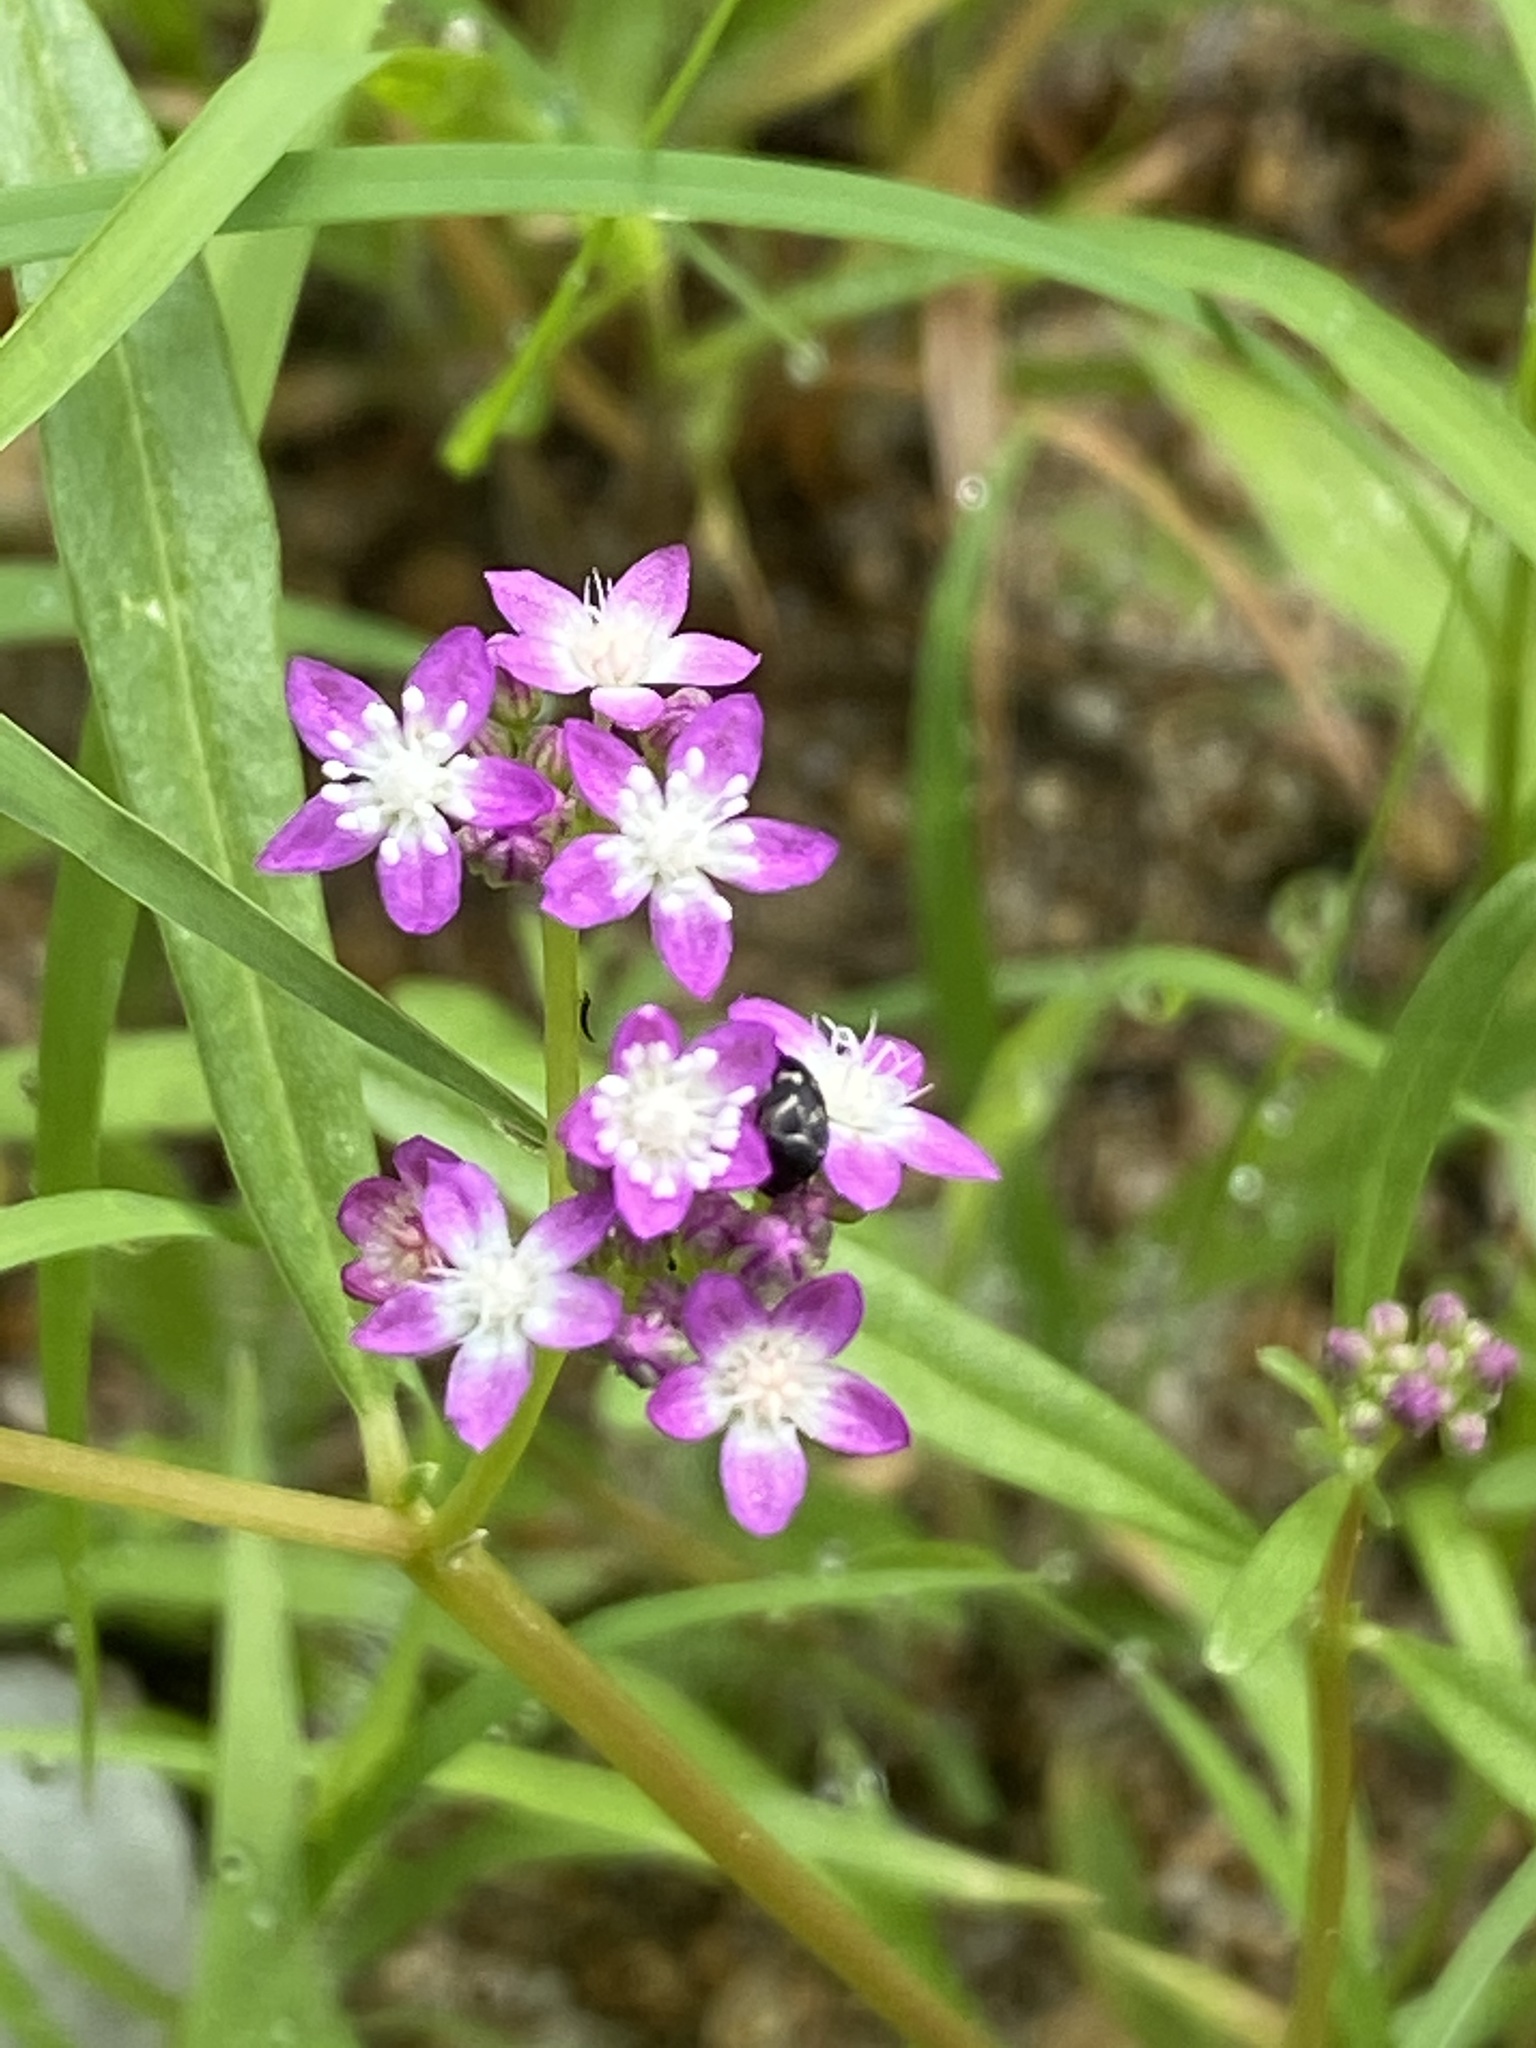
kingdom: Plantae
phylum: Tracheophyta
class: Magnoliopsida
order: Caryophyllales
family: Gisekiaceae
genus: Gisekia
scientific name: Gisekia africana
